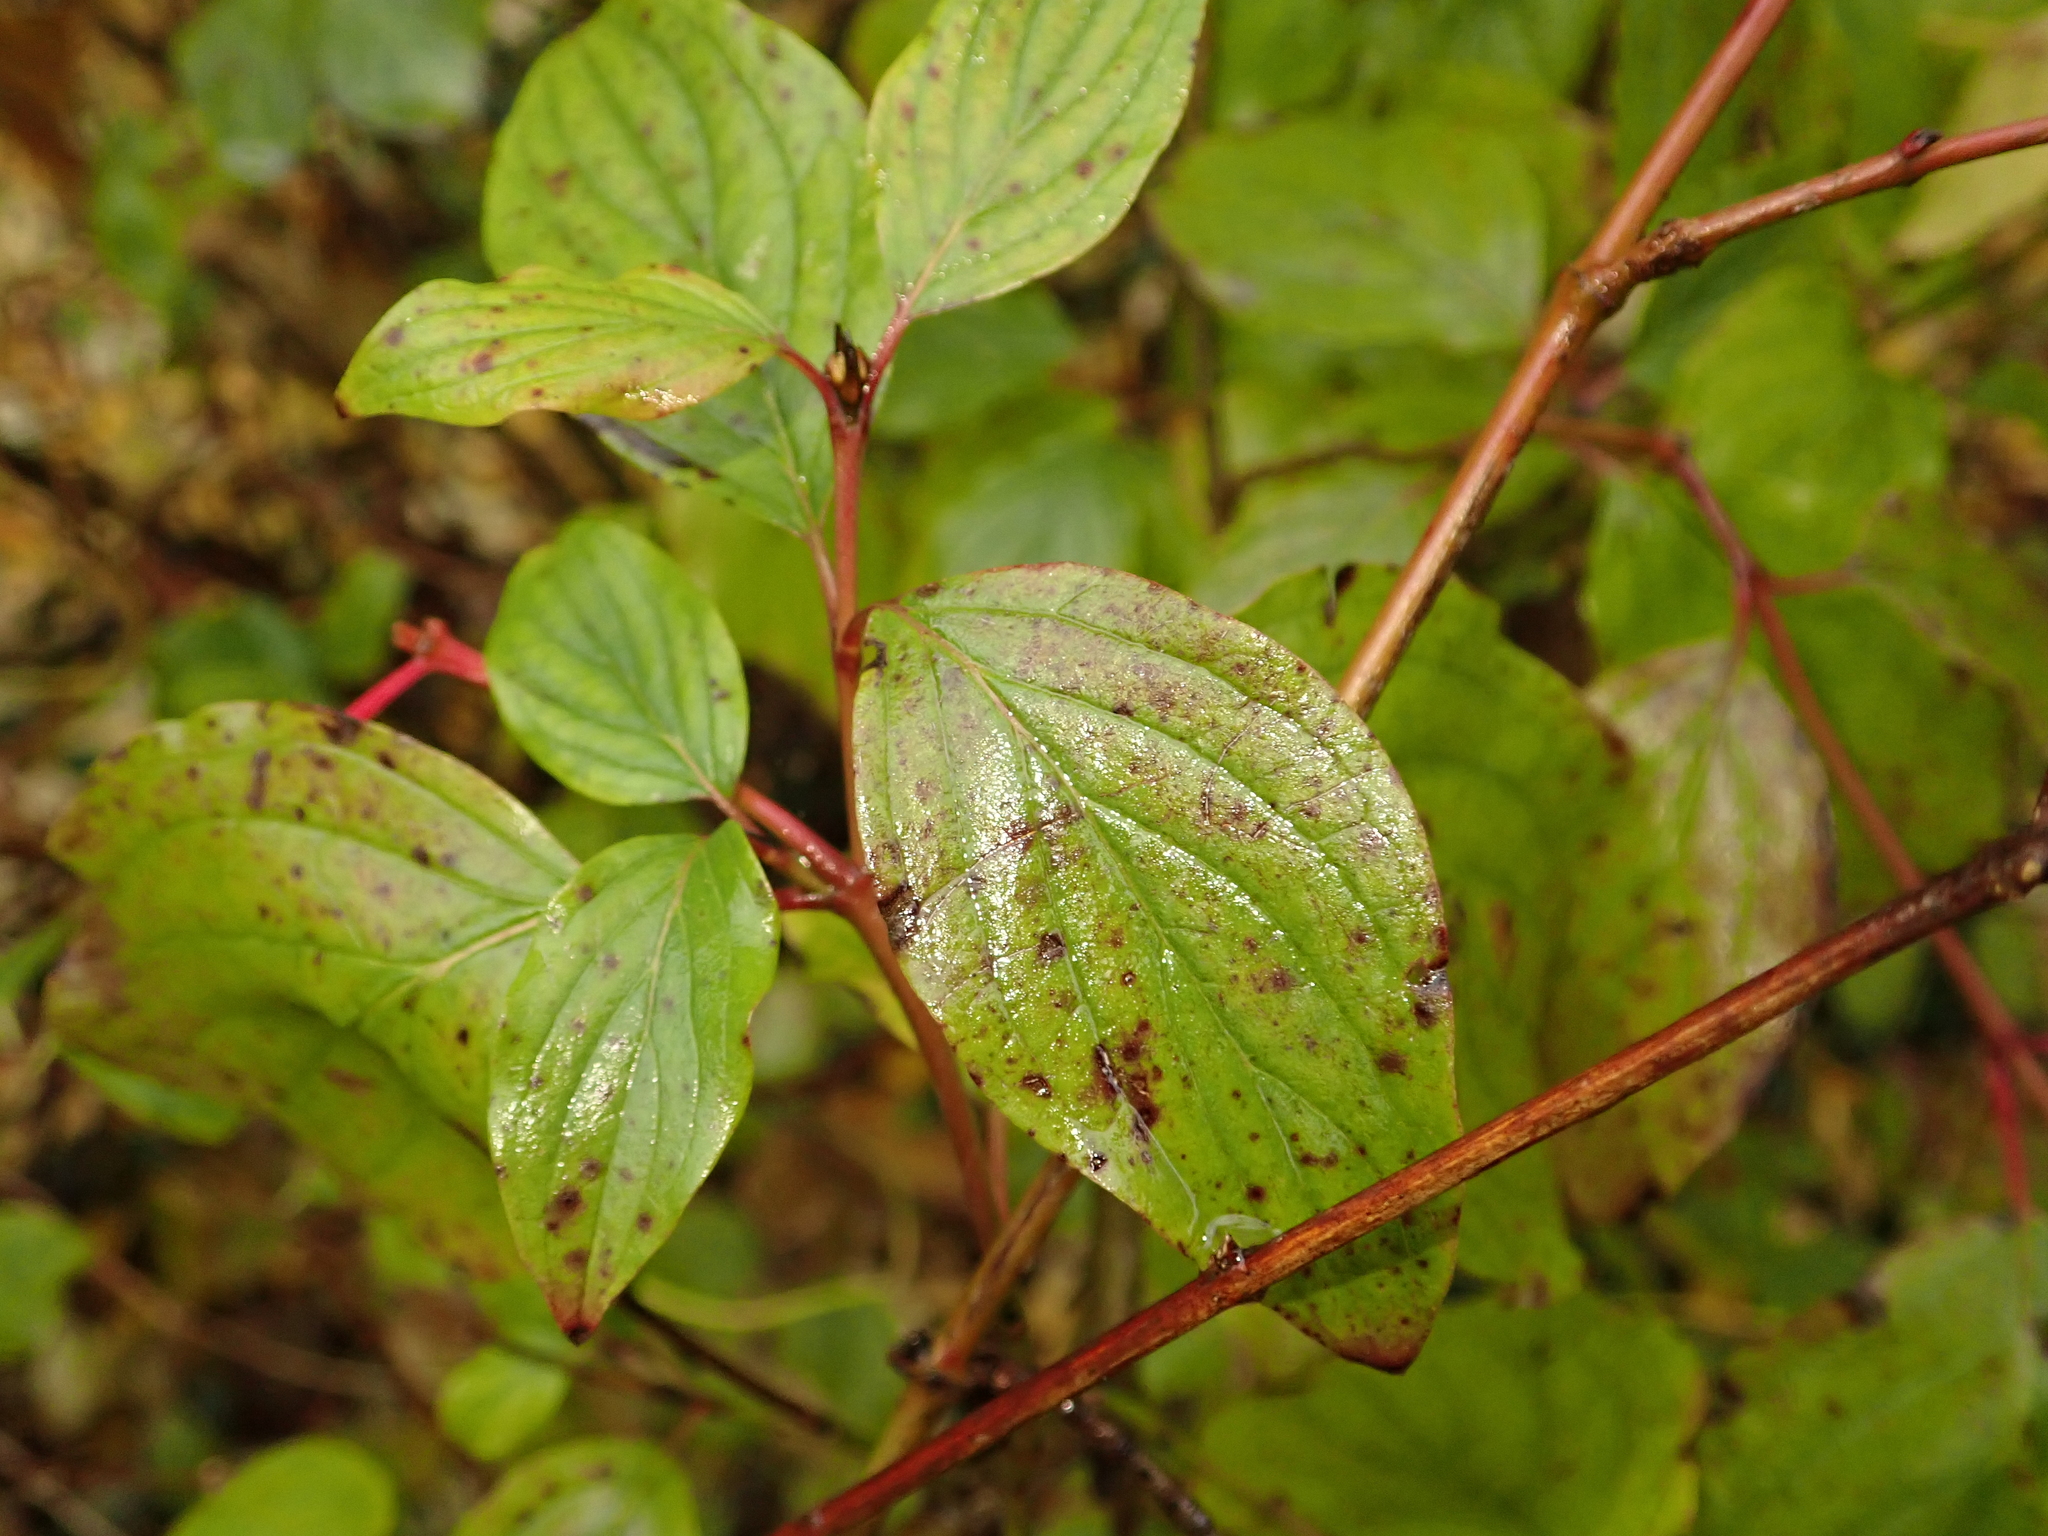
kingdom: Plantae
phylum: Tracheophyta
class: Magnoliopsida
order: Cornales
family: Cornaceae
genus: Cornus
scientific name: Cornus sanguinea
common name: Dogwood
